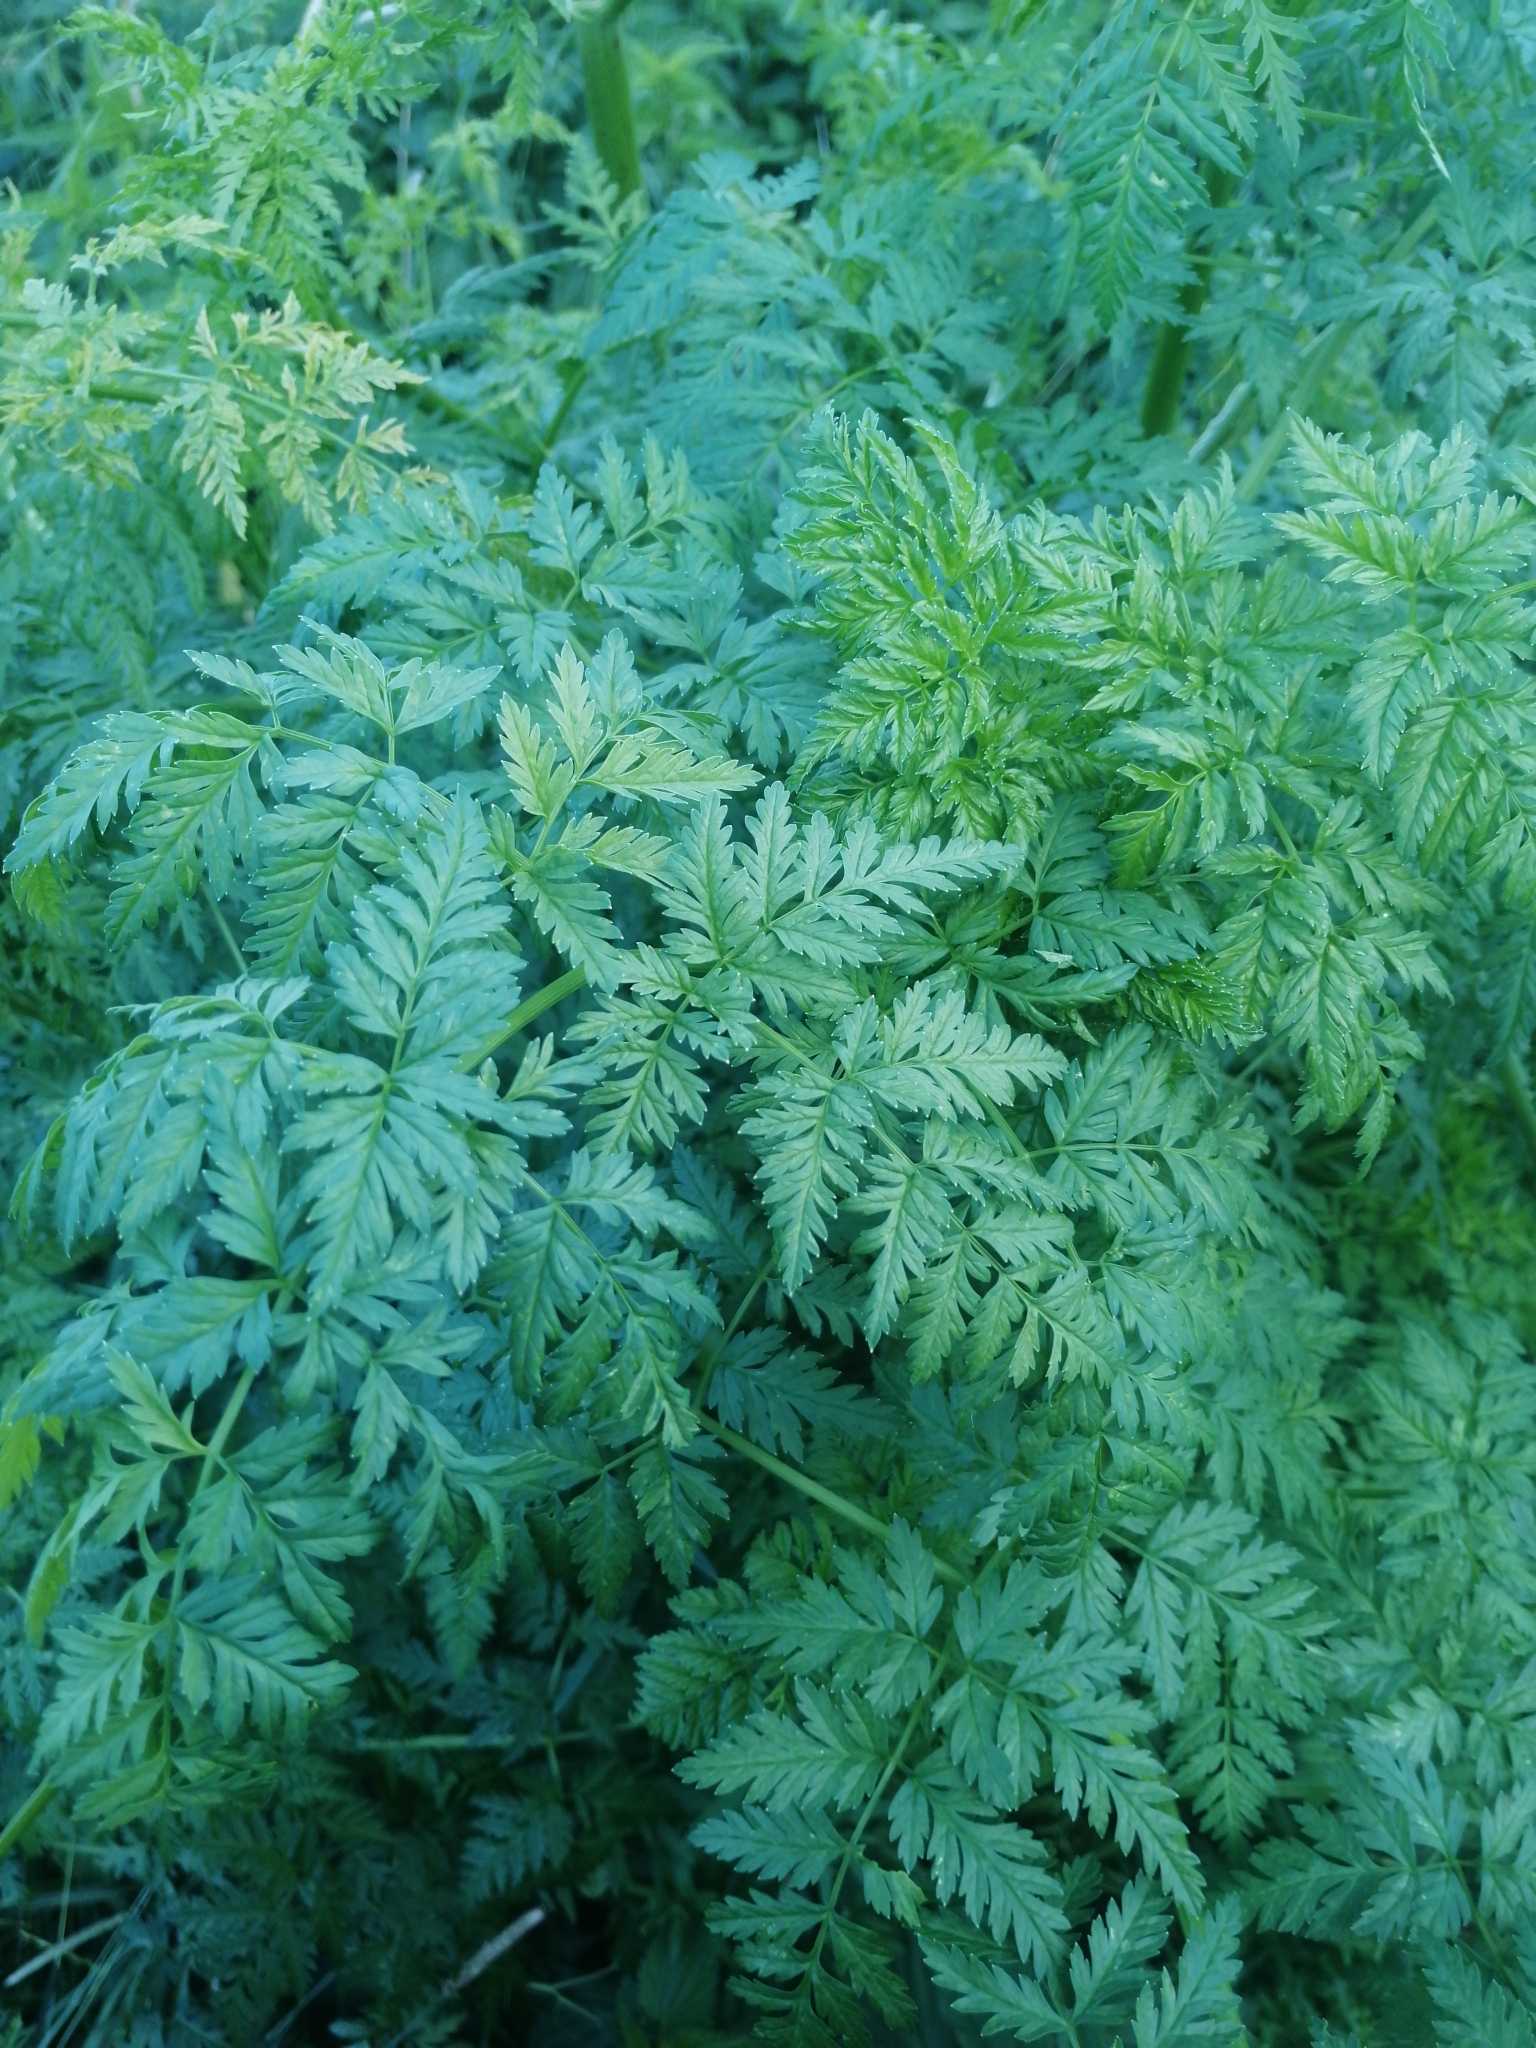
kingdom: Plantae
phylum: Tracheophyta
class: Magnoliopsida
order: Apiales
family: Apiaceae
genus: Conium
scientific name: Conium maculatum
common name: Hemlock
